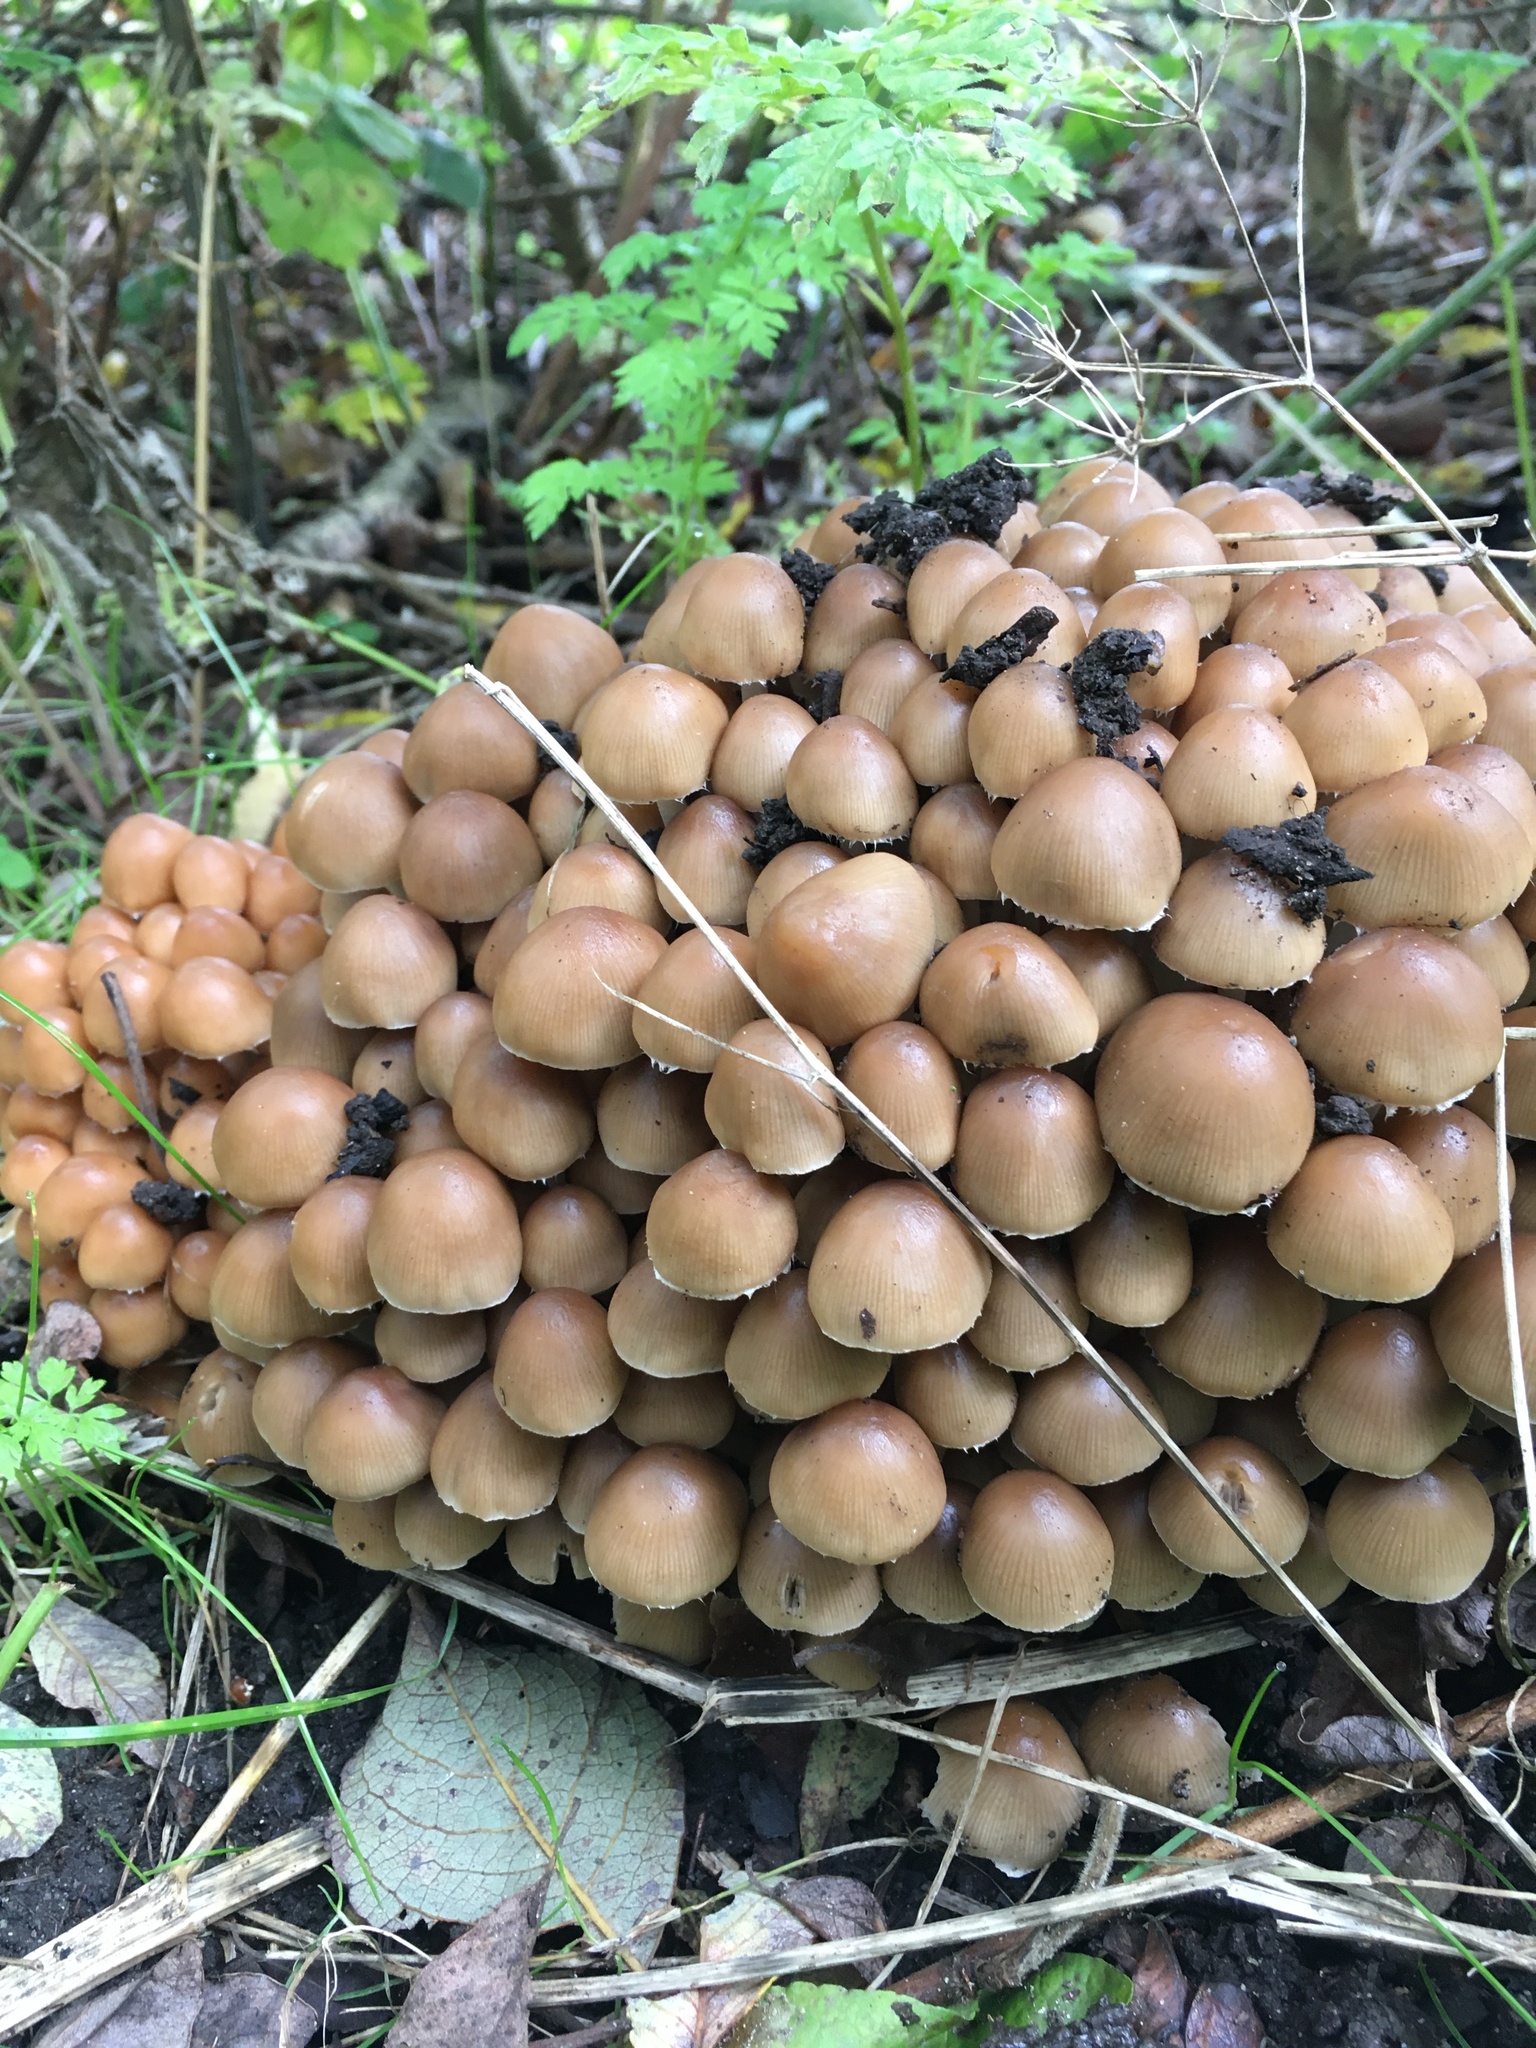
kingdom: Fungi
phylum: Basidiomycota
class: Agaricomycetes
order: Agaricales
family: Psathyrellaceae
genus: Britzelmayria
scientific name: Britzelmayria multipedata
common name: Clustered brittlestem
